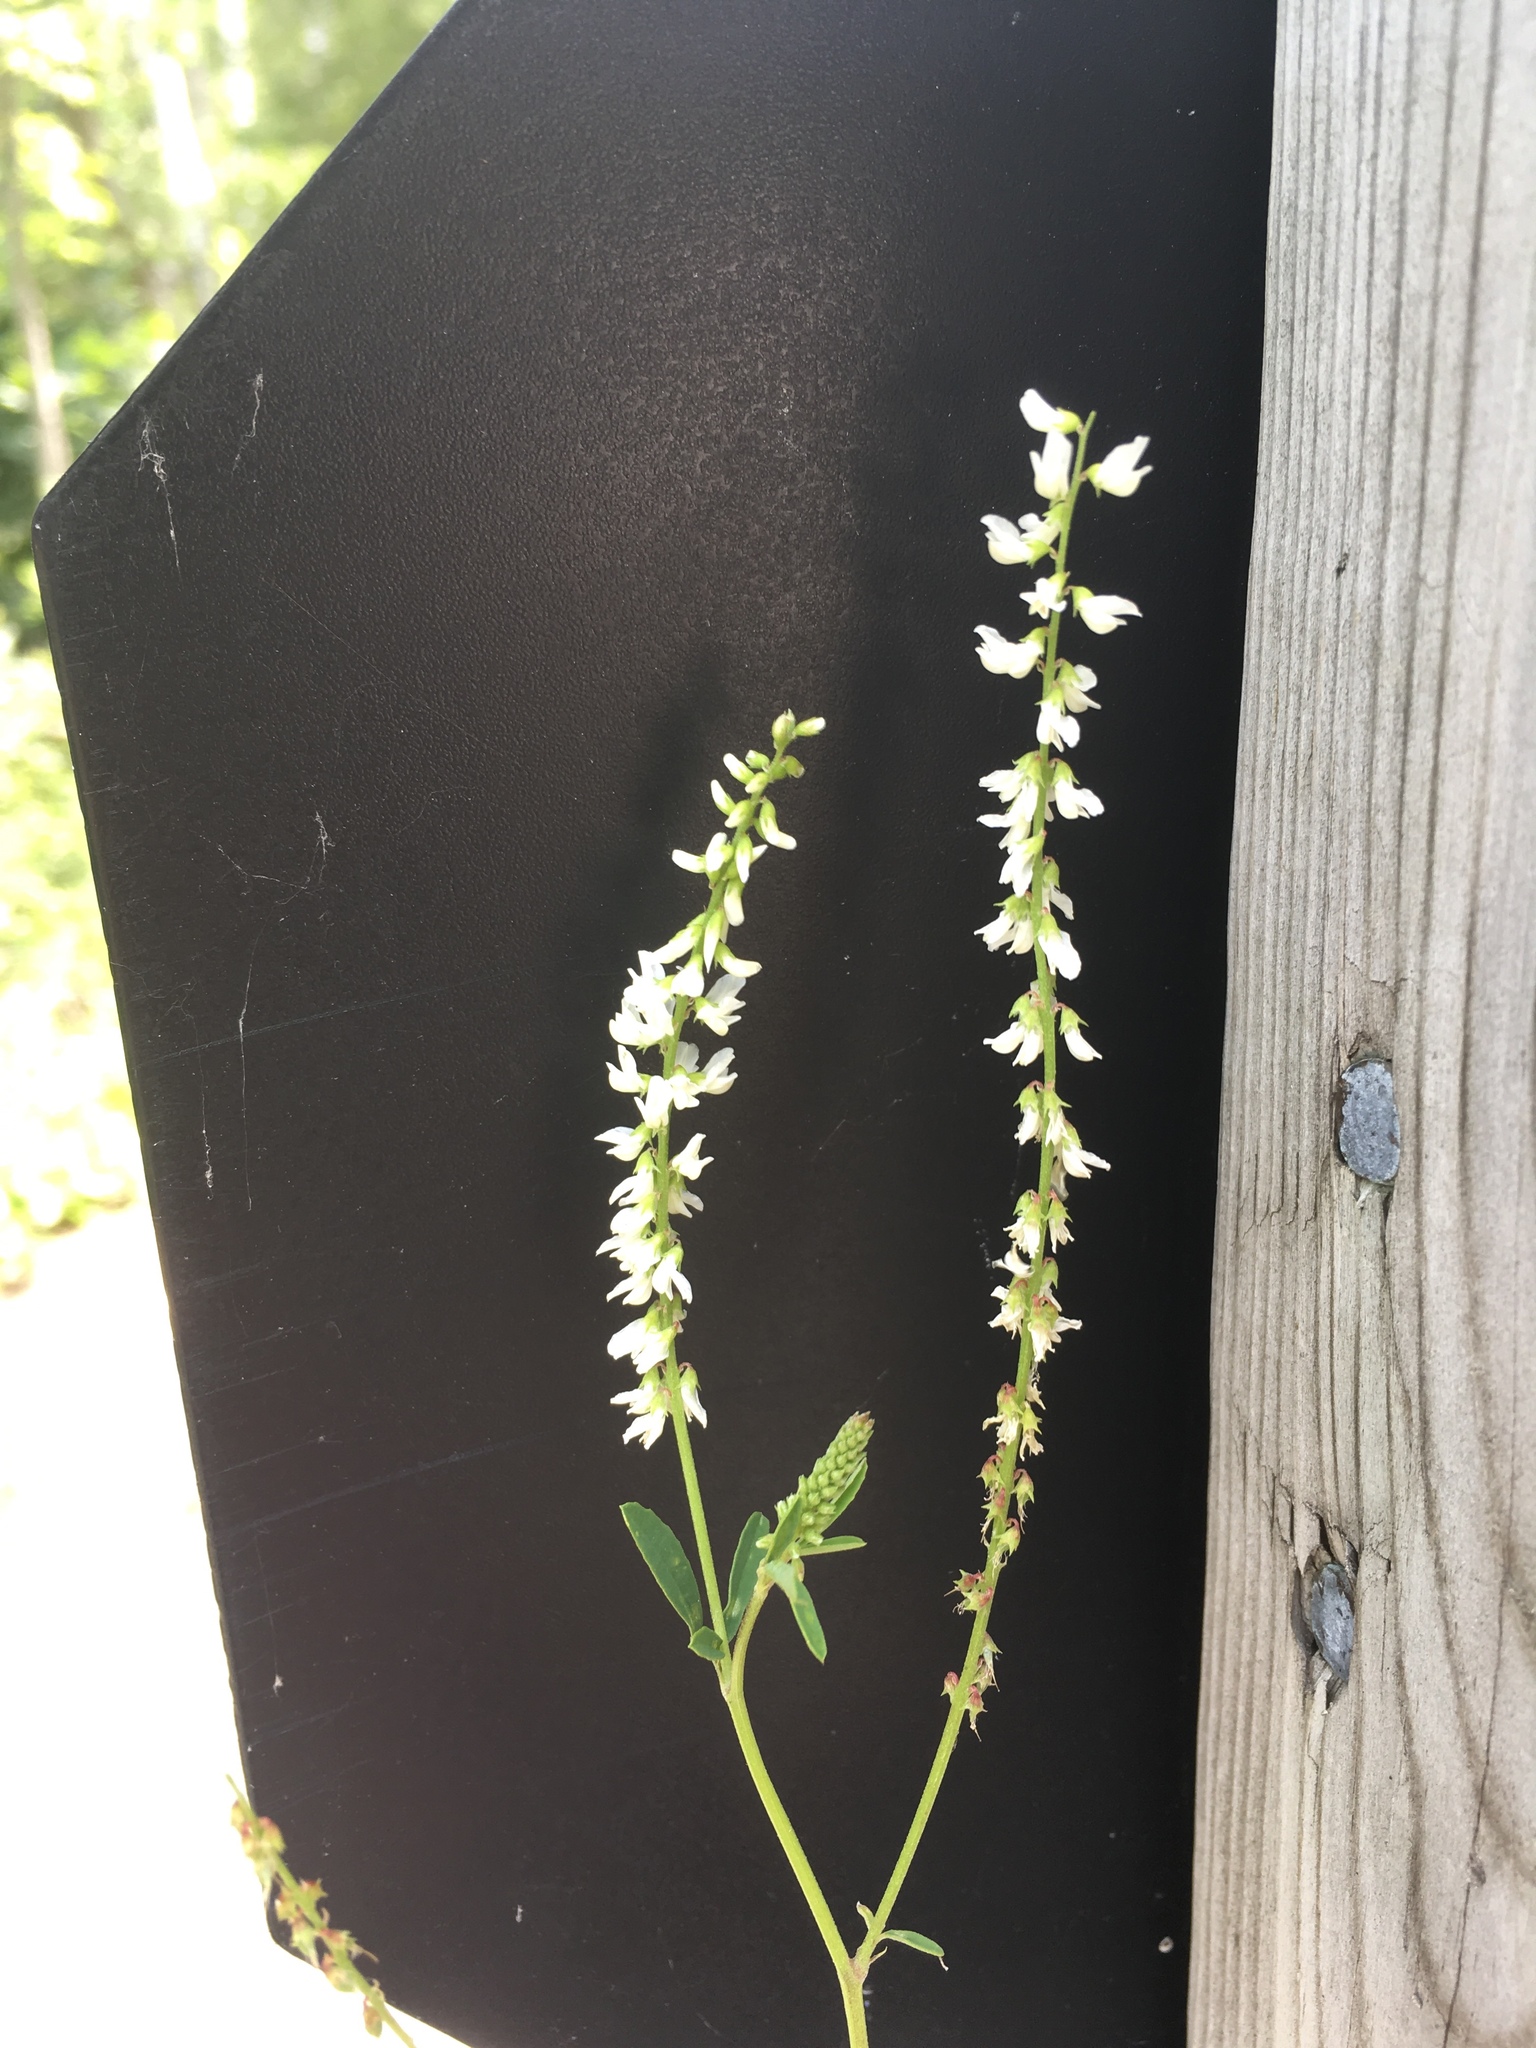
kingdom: Plantae
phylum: Tracheophyta
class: Magnoliopsida
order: Fabales
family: Fabaceae
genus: Melilotus
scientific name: Melilotus albus
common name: White melilot
